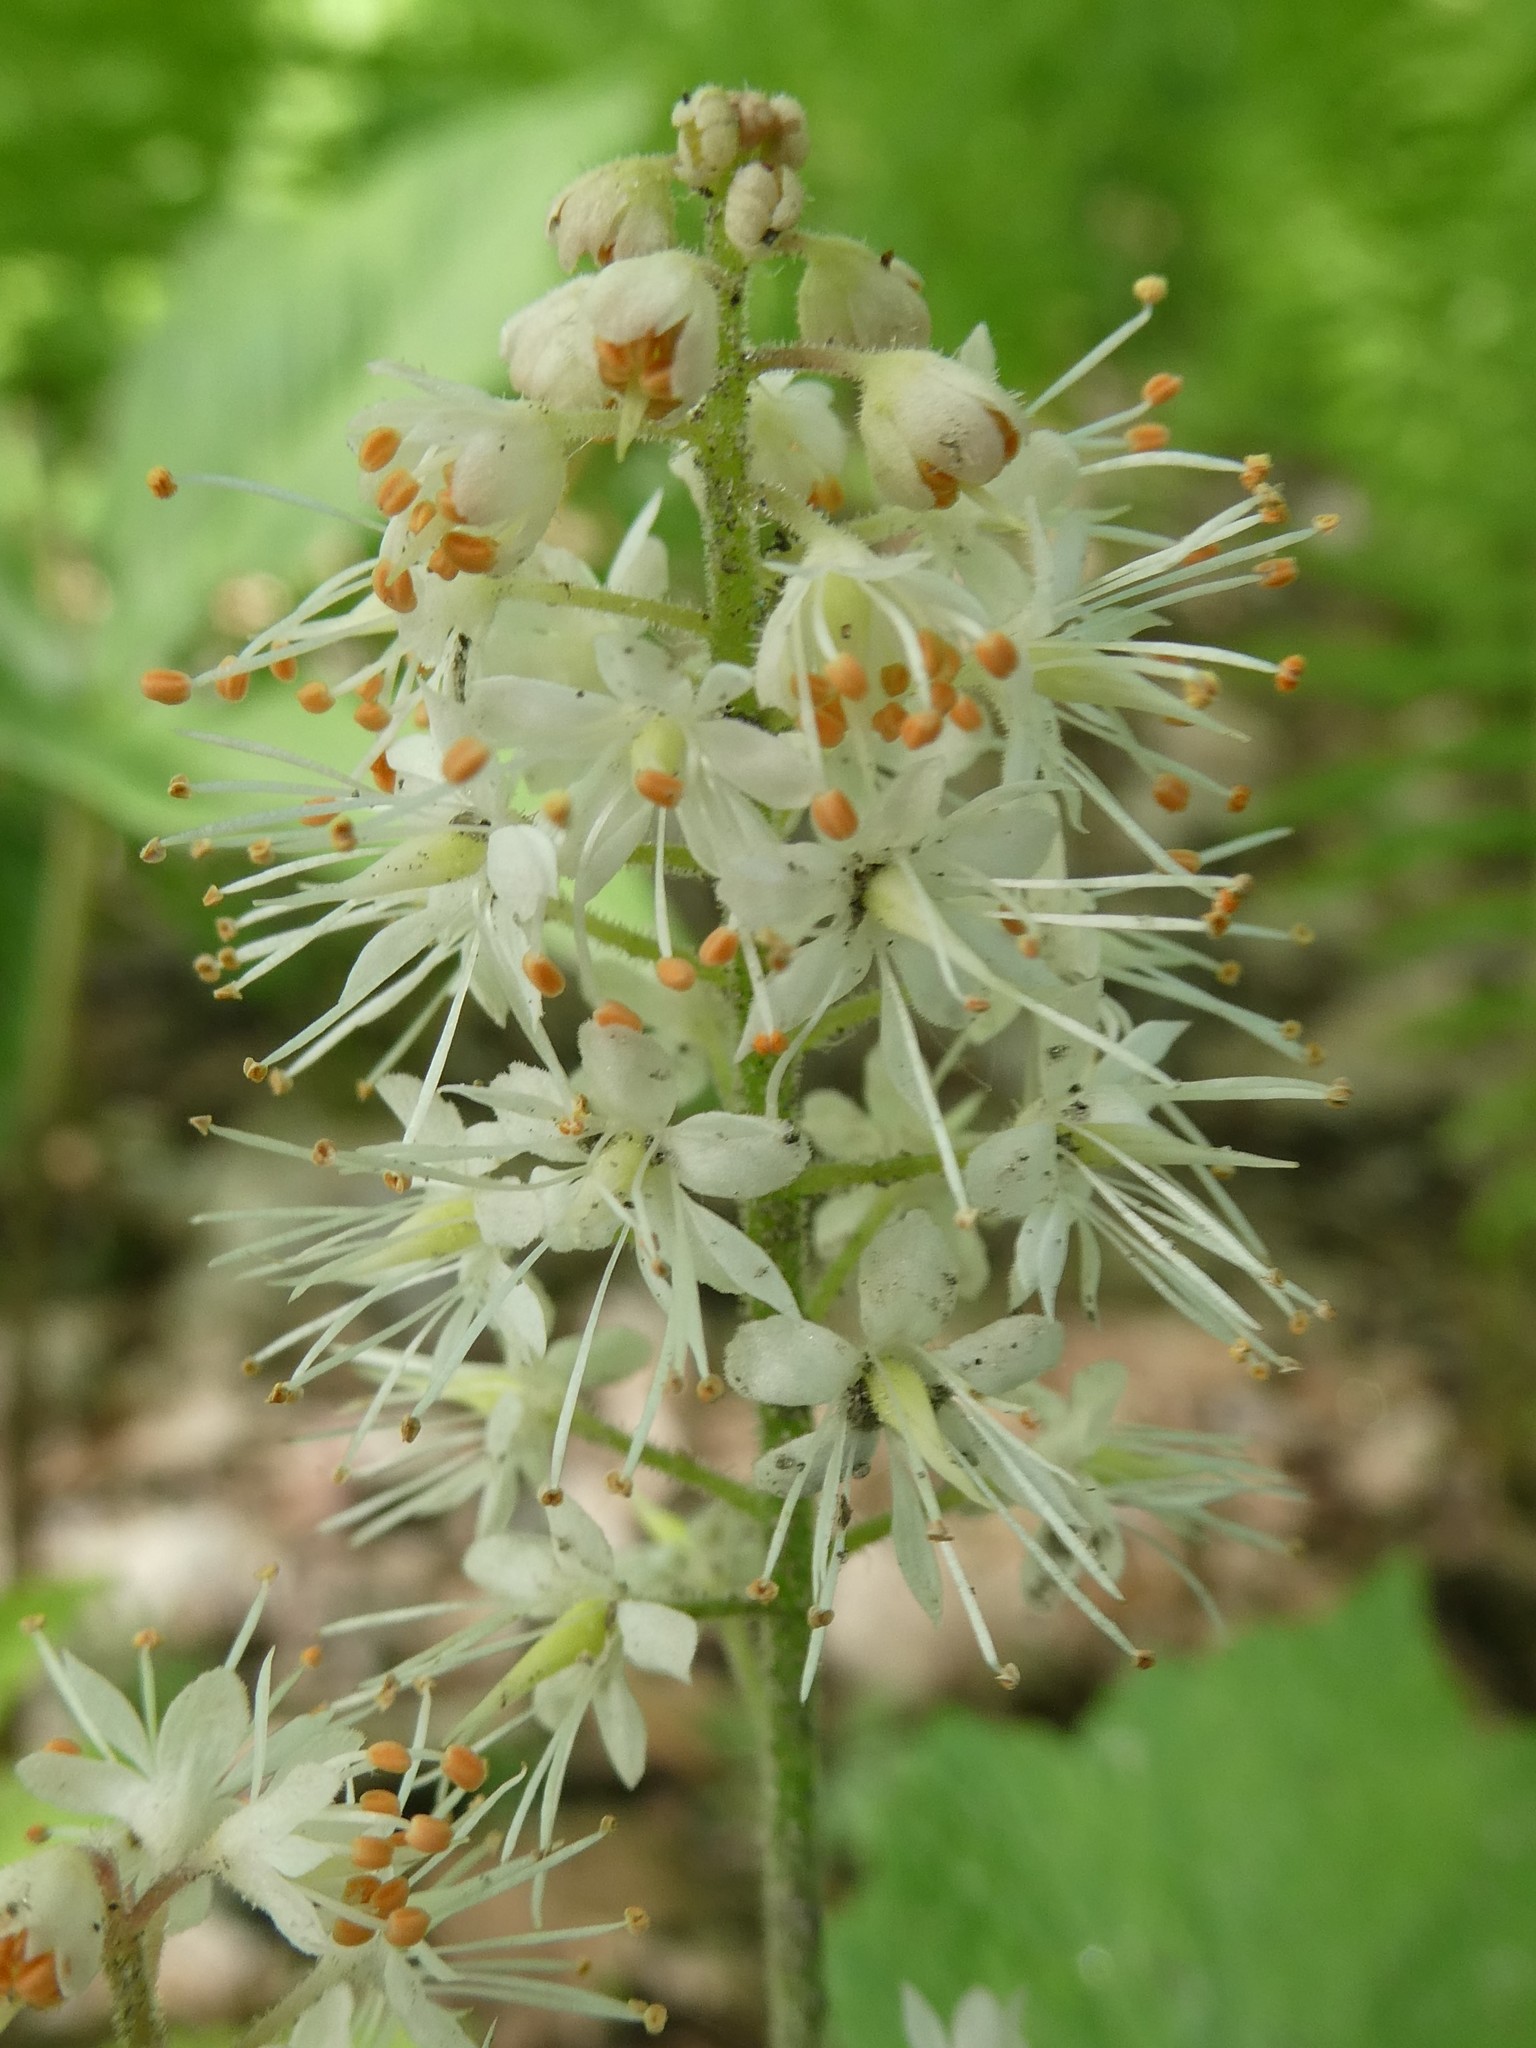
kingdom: Plantae
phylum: Tracheophyta
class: Magnoliopsida
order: Saxifragales
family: Saxifragaceae
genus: Tiarella
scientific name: Tiarella stolonifera
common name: Stoloniferous foamflower
